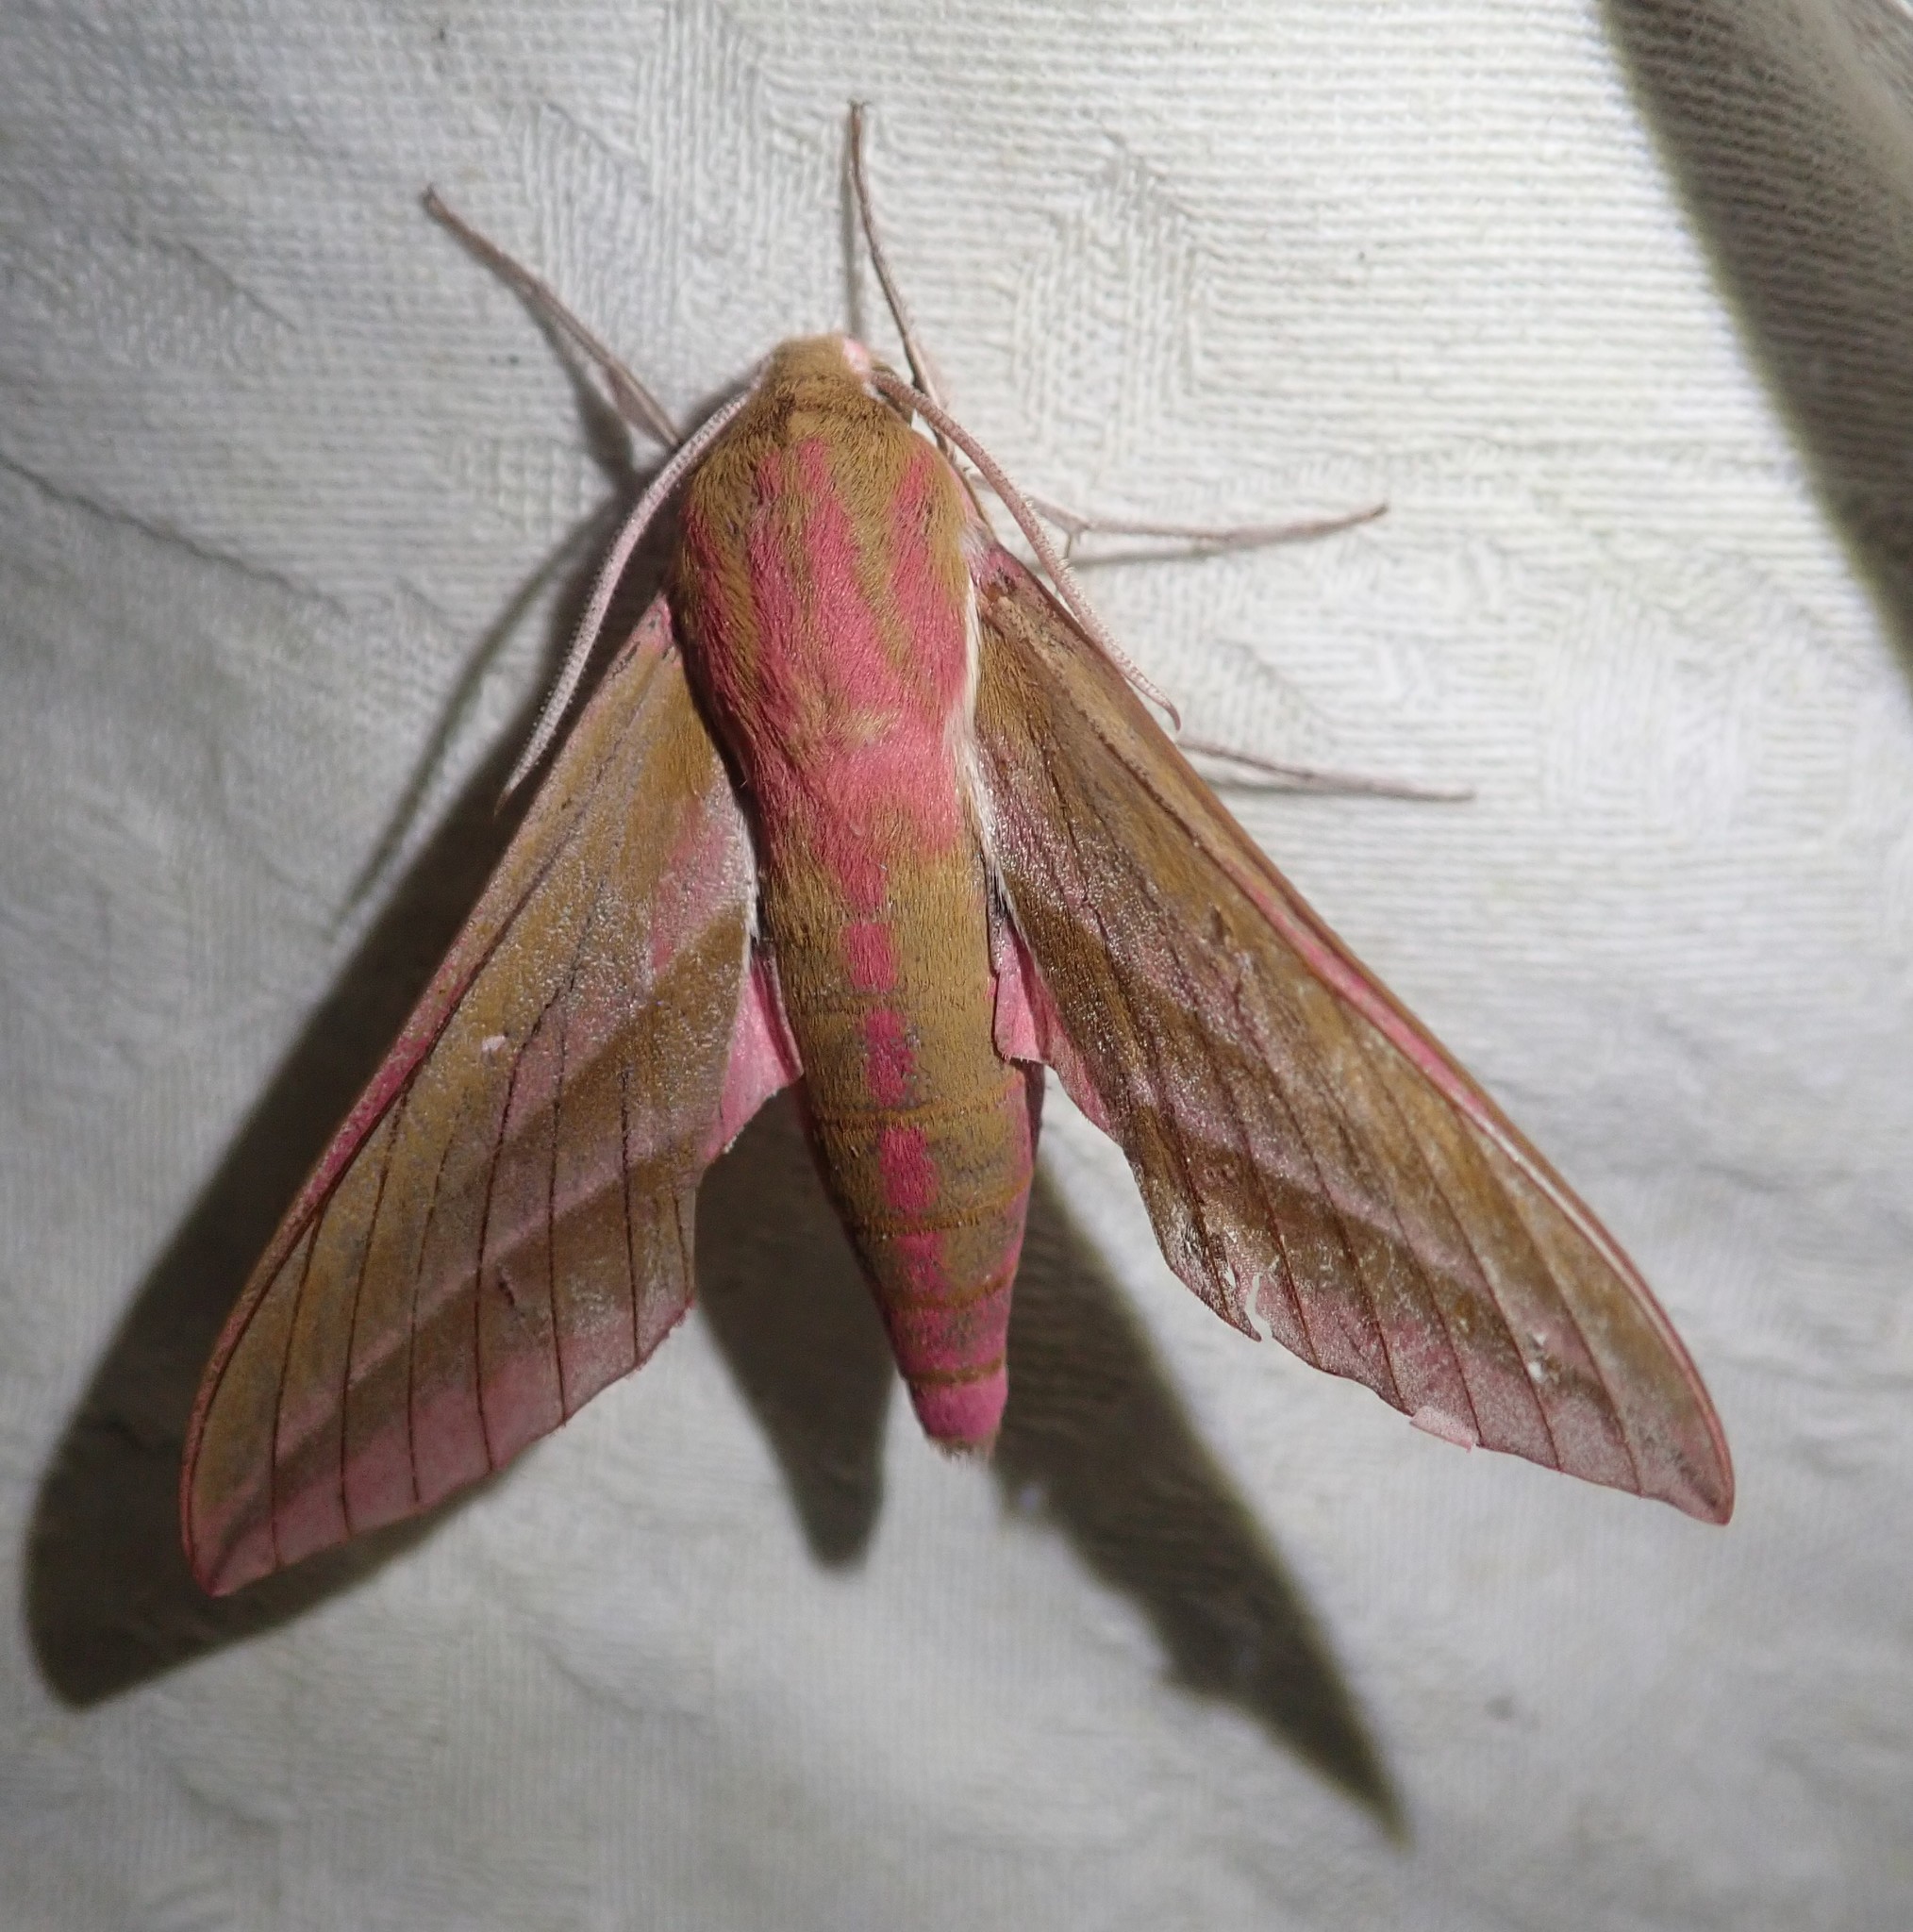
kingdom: Animalia
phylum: Arthropoda
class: Insecta
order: Lepidoptera
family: Sphingidae
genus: Deilephila
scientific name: Deilephila elpenor
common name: Elephant hawk-moth
